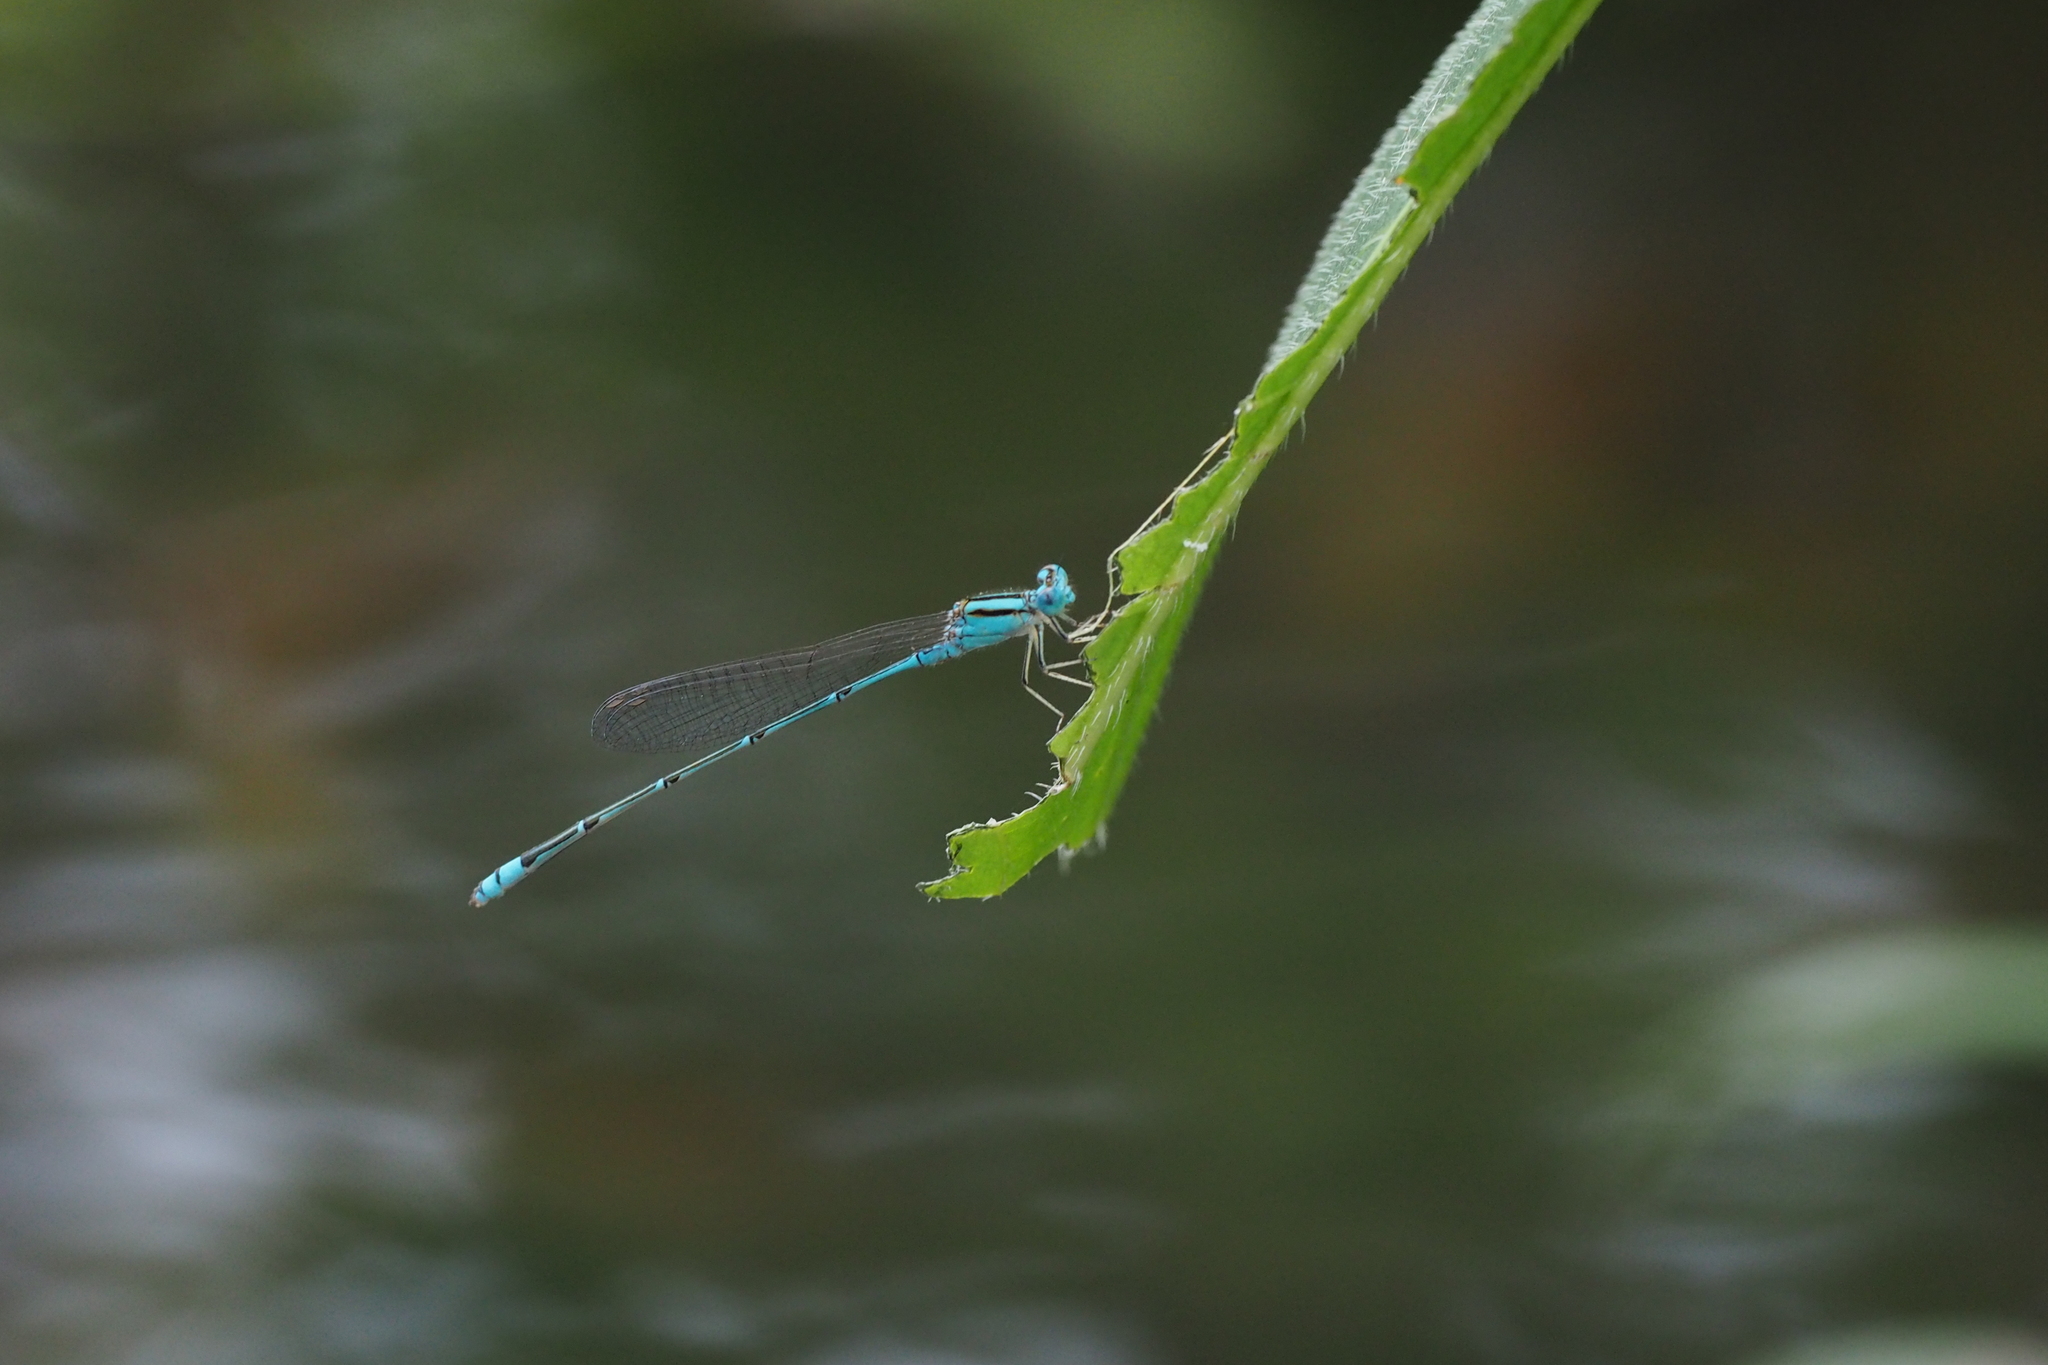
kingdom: Animalia
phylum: Arthropoda
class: Insecta
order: Odonata
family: Coenagrionidae
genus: Pseudagrion
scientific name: Pseudagrion microcephalum
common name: Blue riverdamsel
